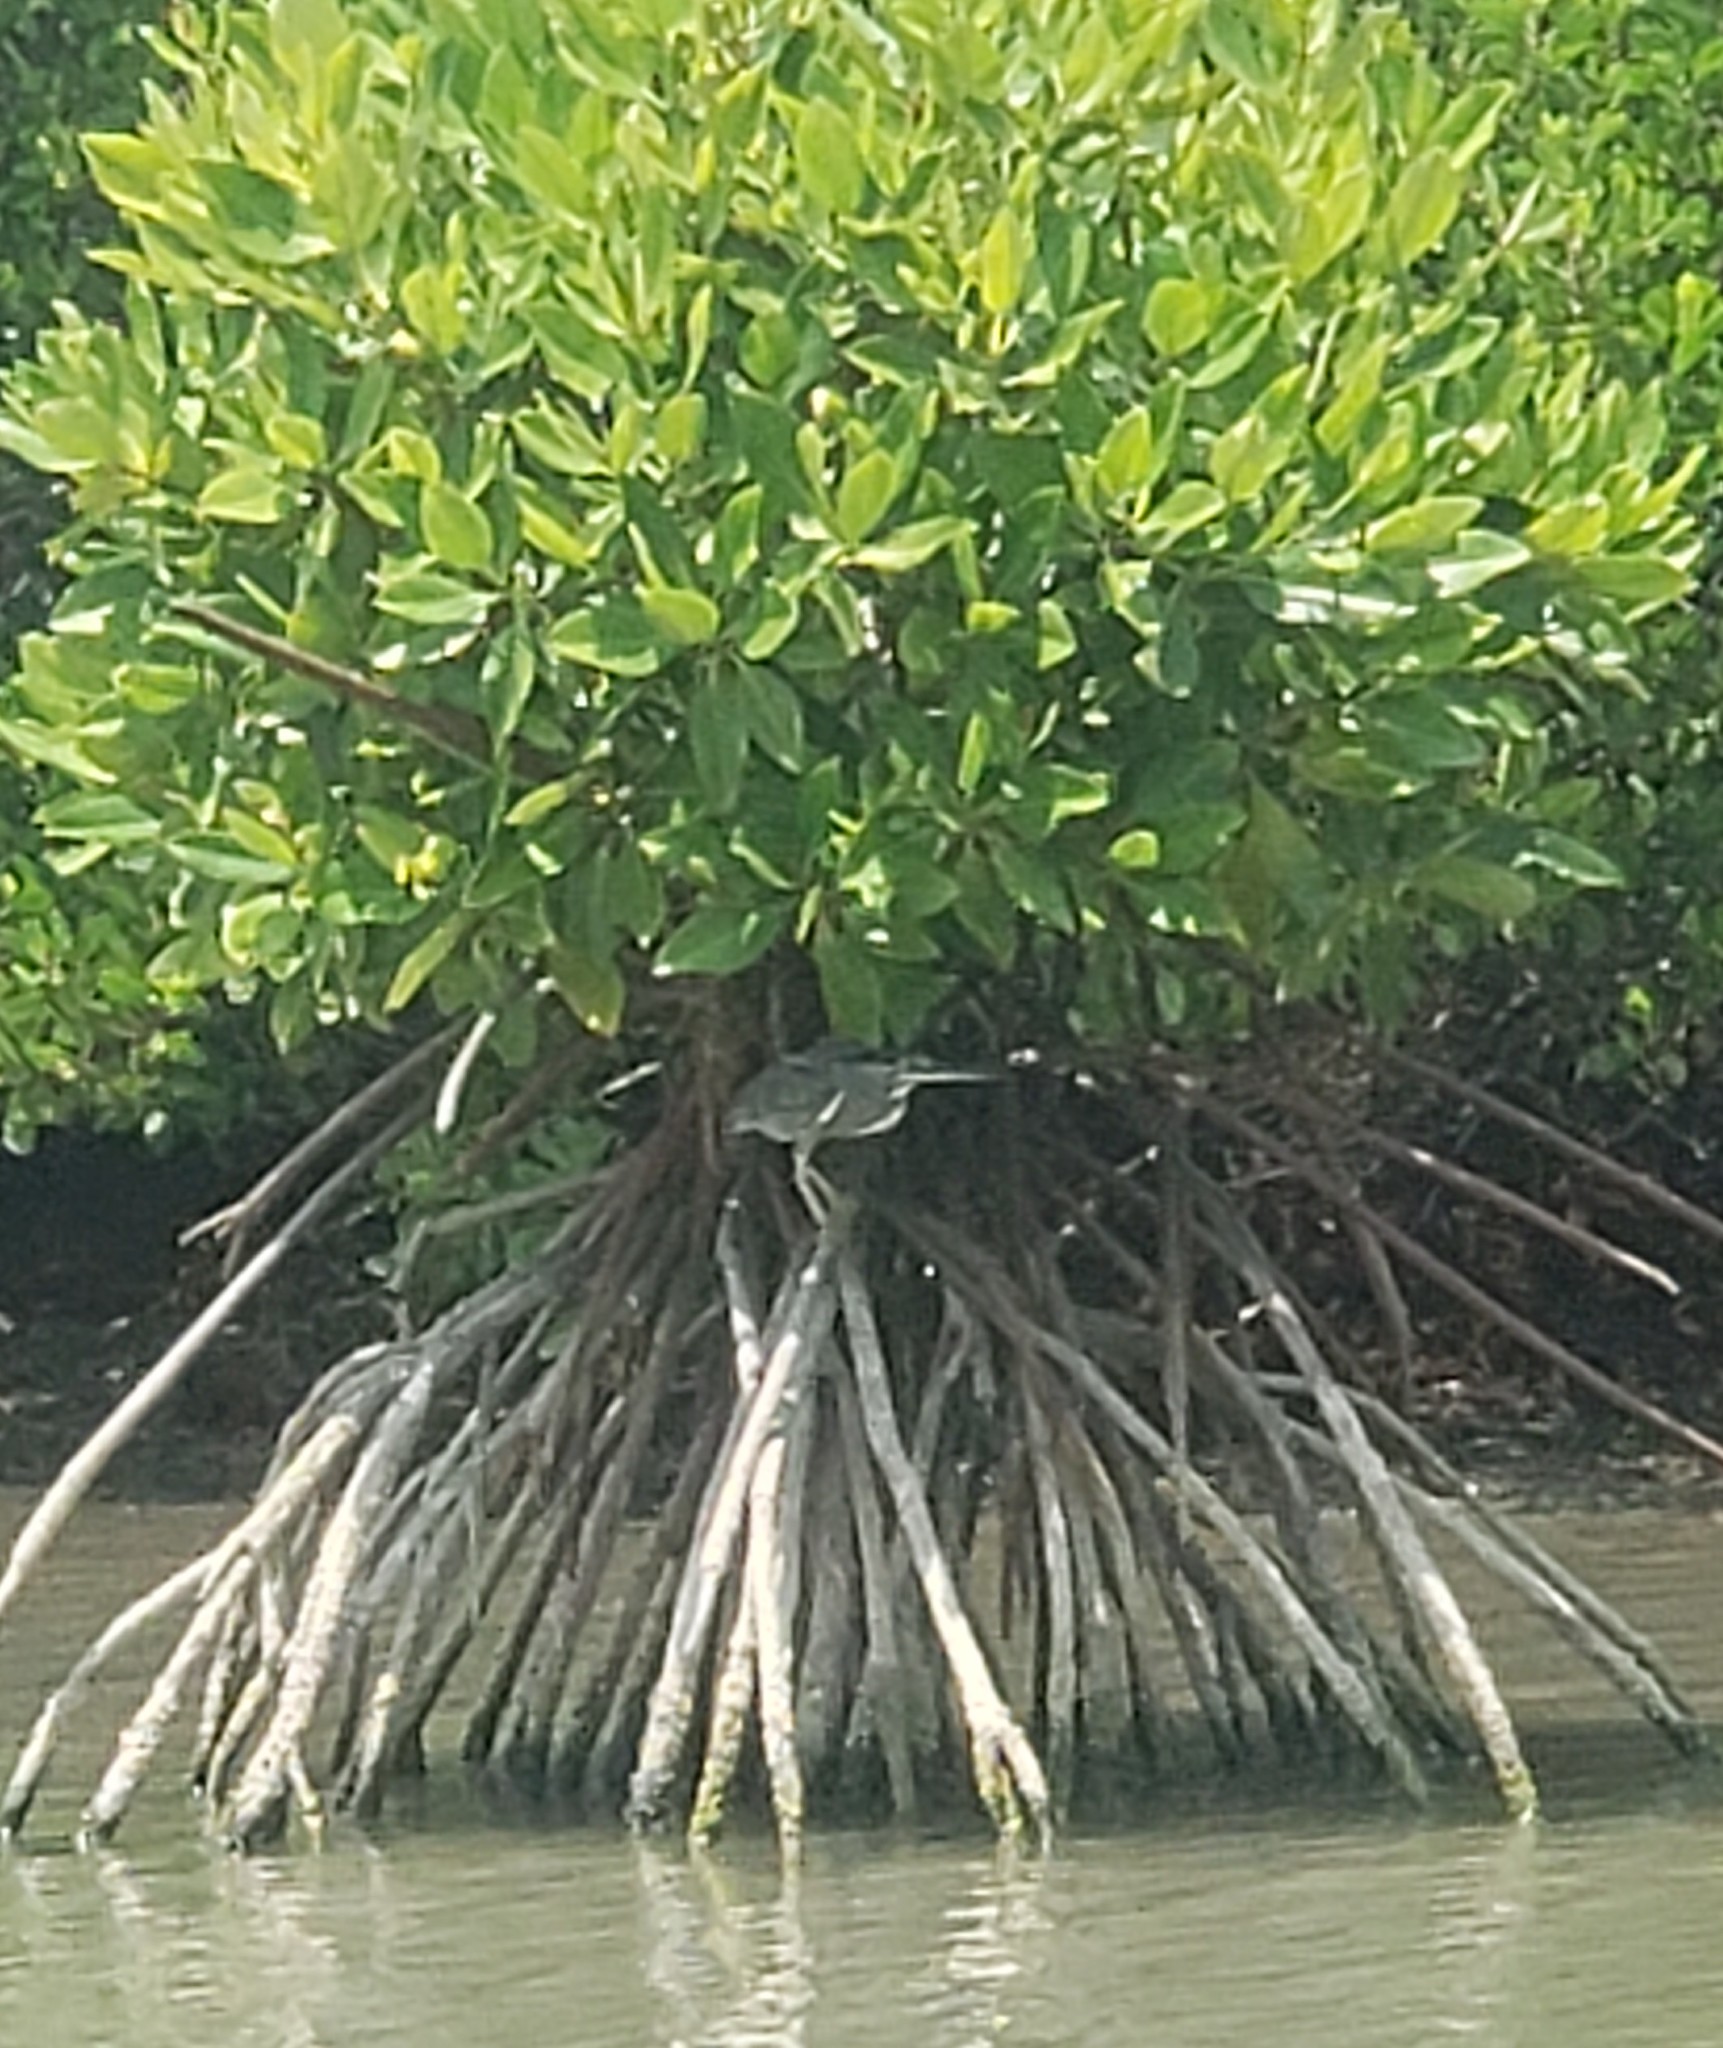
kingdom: Animalia
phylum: Chordata
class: Aves
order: Pelecaniformes
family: Ardeidae
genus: Butorides
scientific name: Butorides striata
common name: Striated heron
